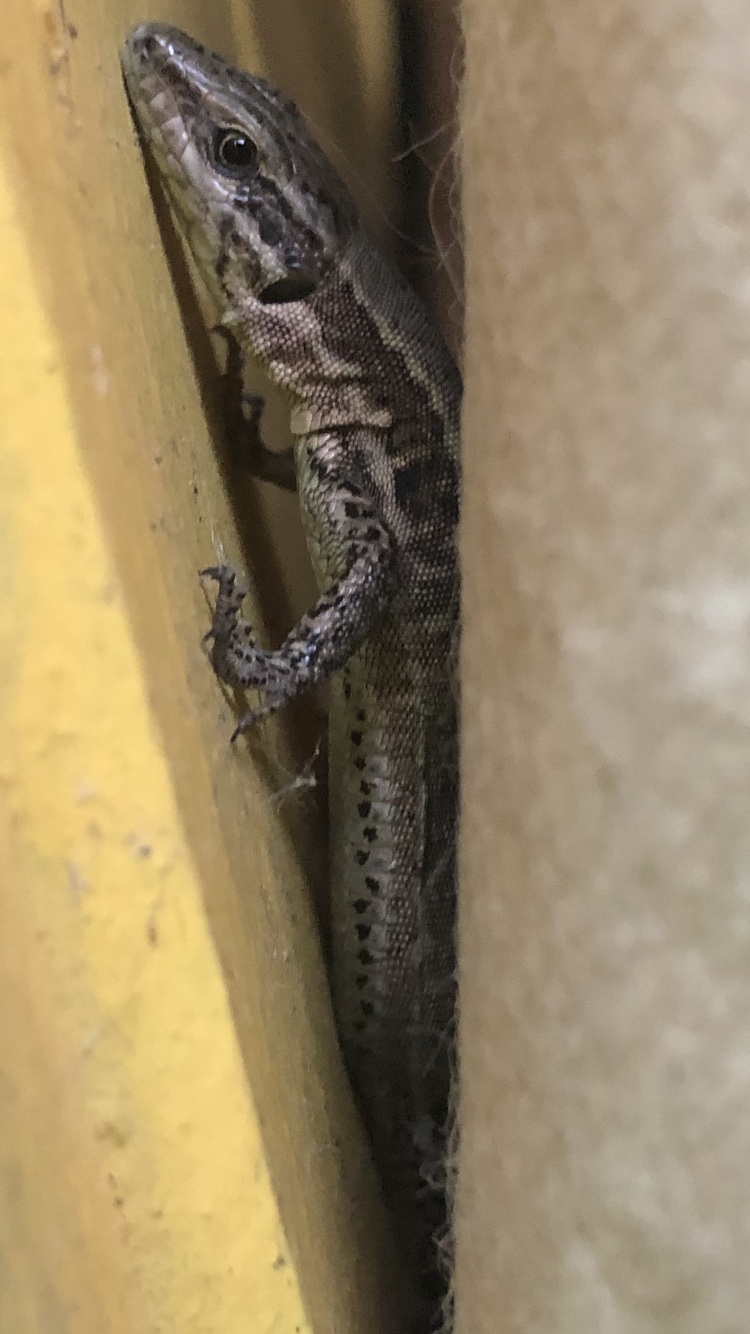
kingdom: Animalia
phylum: Chordata
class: Squamata
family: Lacertidae
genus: Podarcis
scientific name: Podarcis muralis
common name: Common wall lizard
